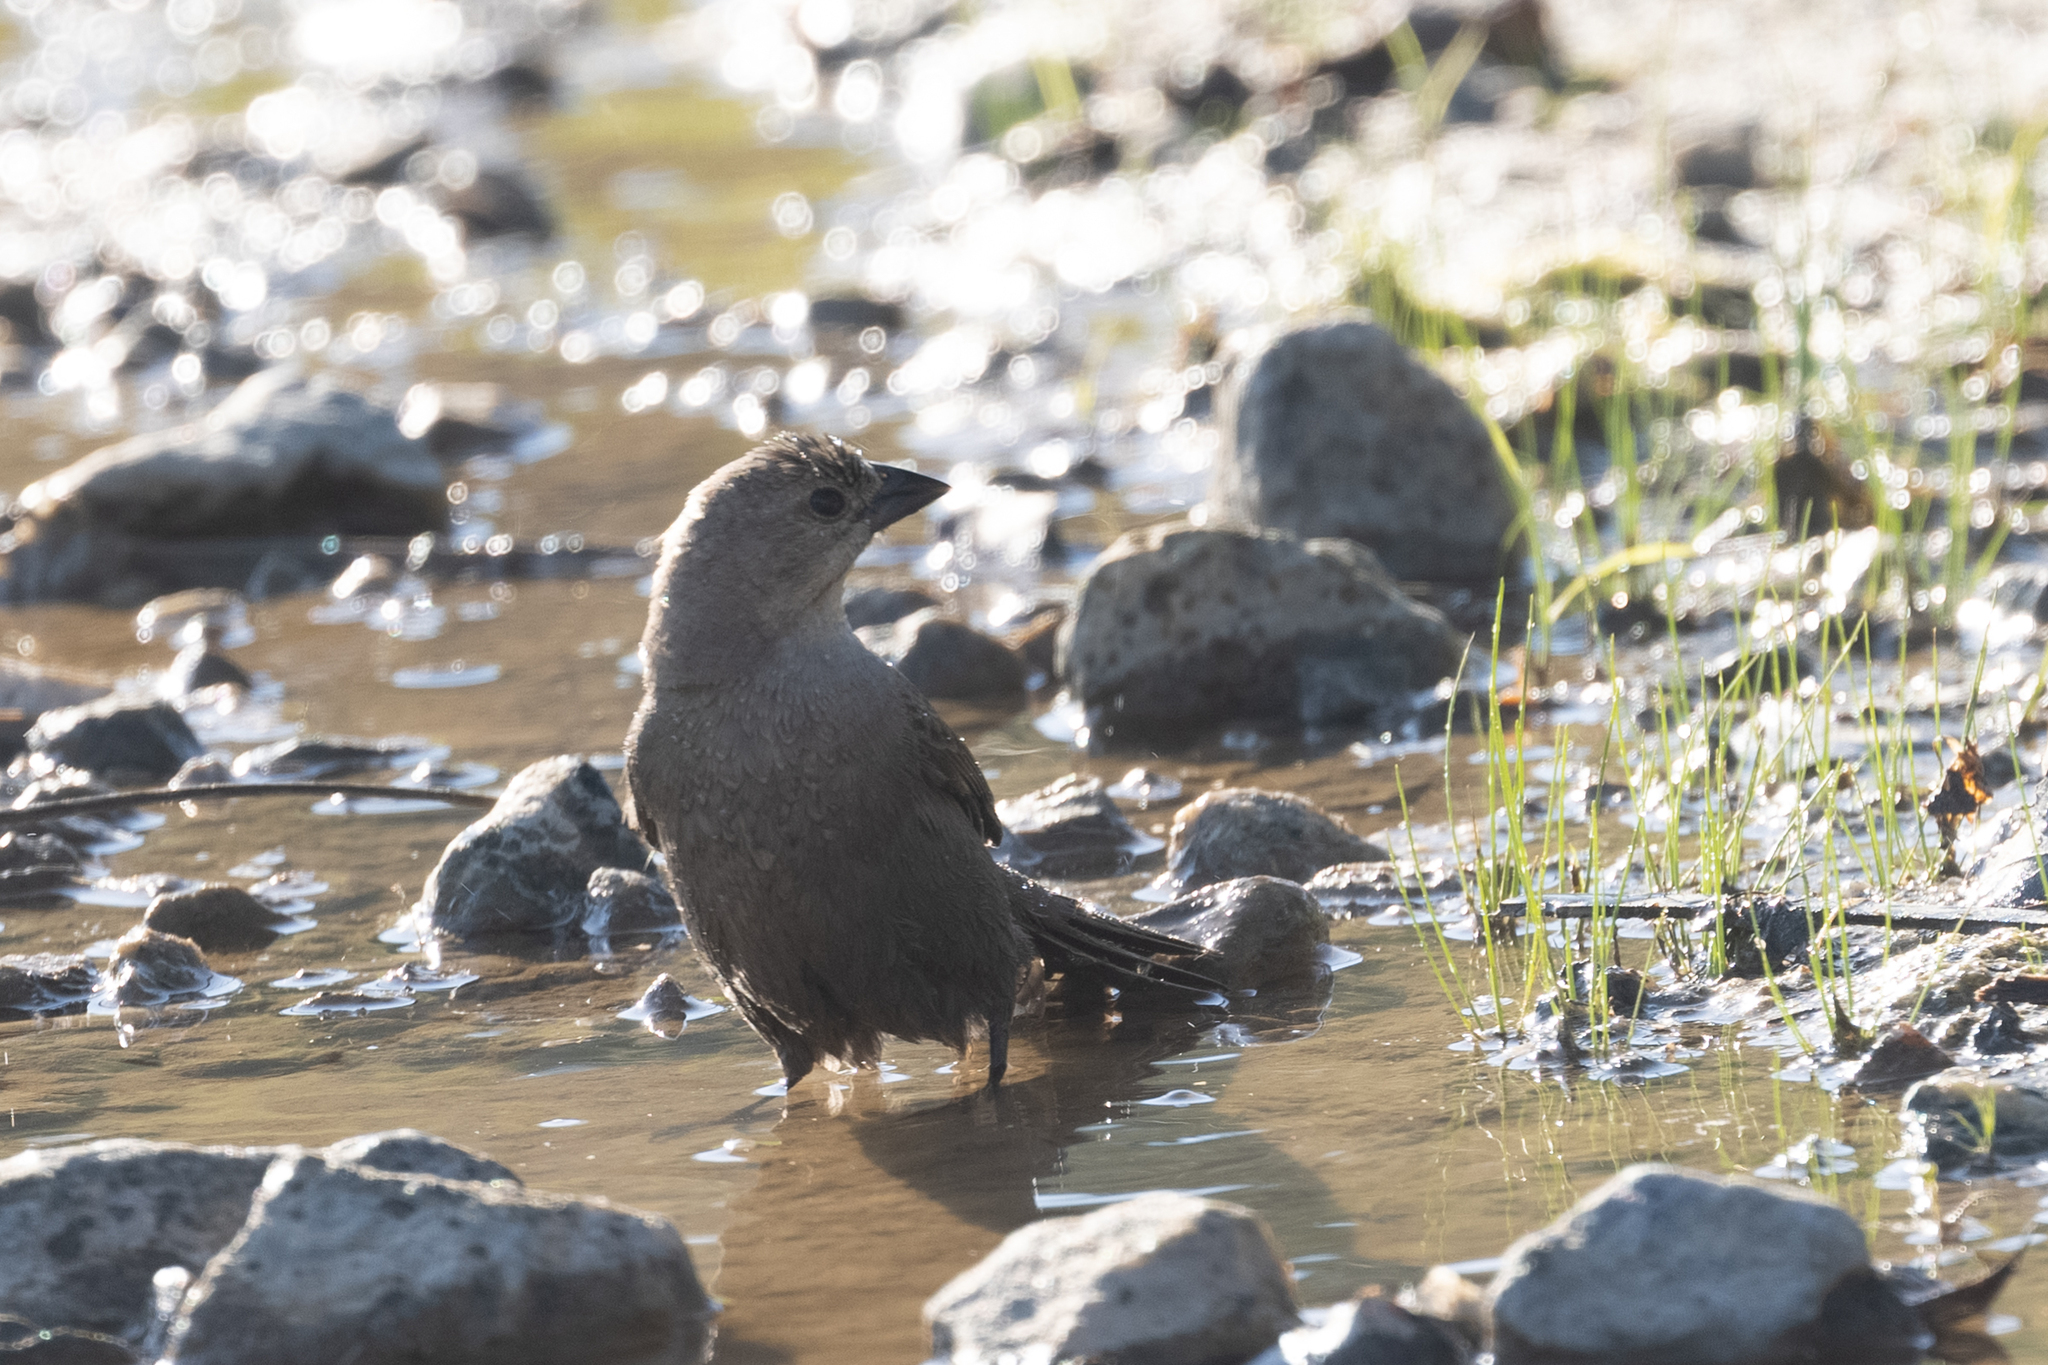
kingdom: Animalia
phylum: Chordata
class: Aves
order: Passeriformes
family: Icteridae
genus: Molothrus
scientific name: Molothrus ater
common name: Brown-headed cowbird
